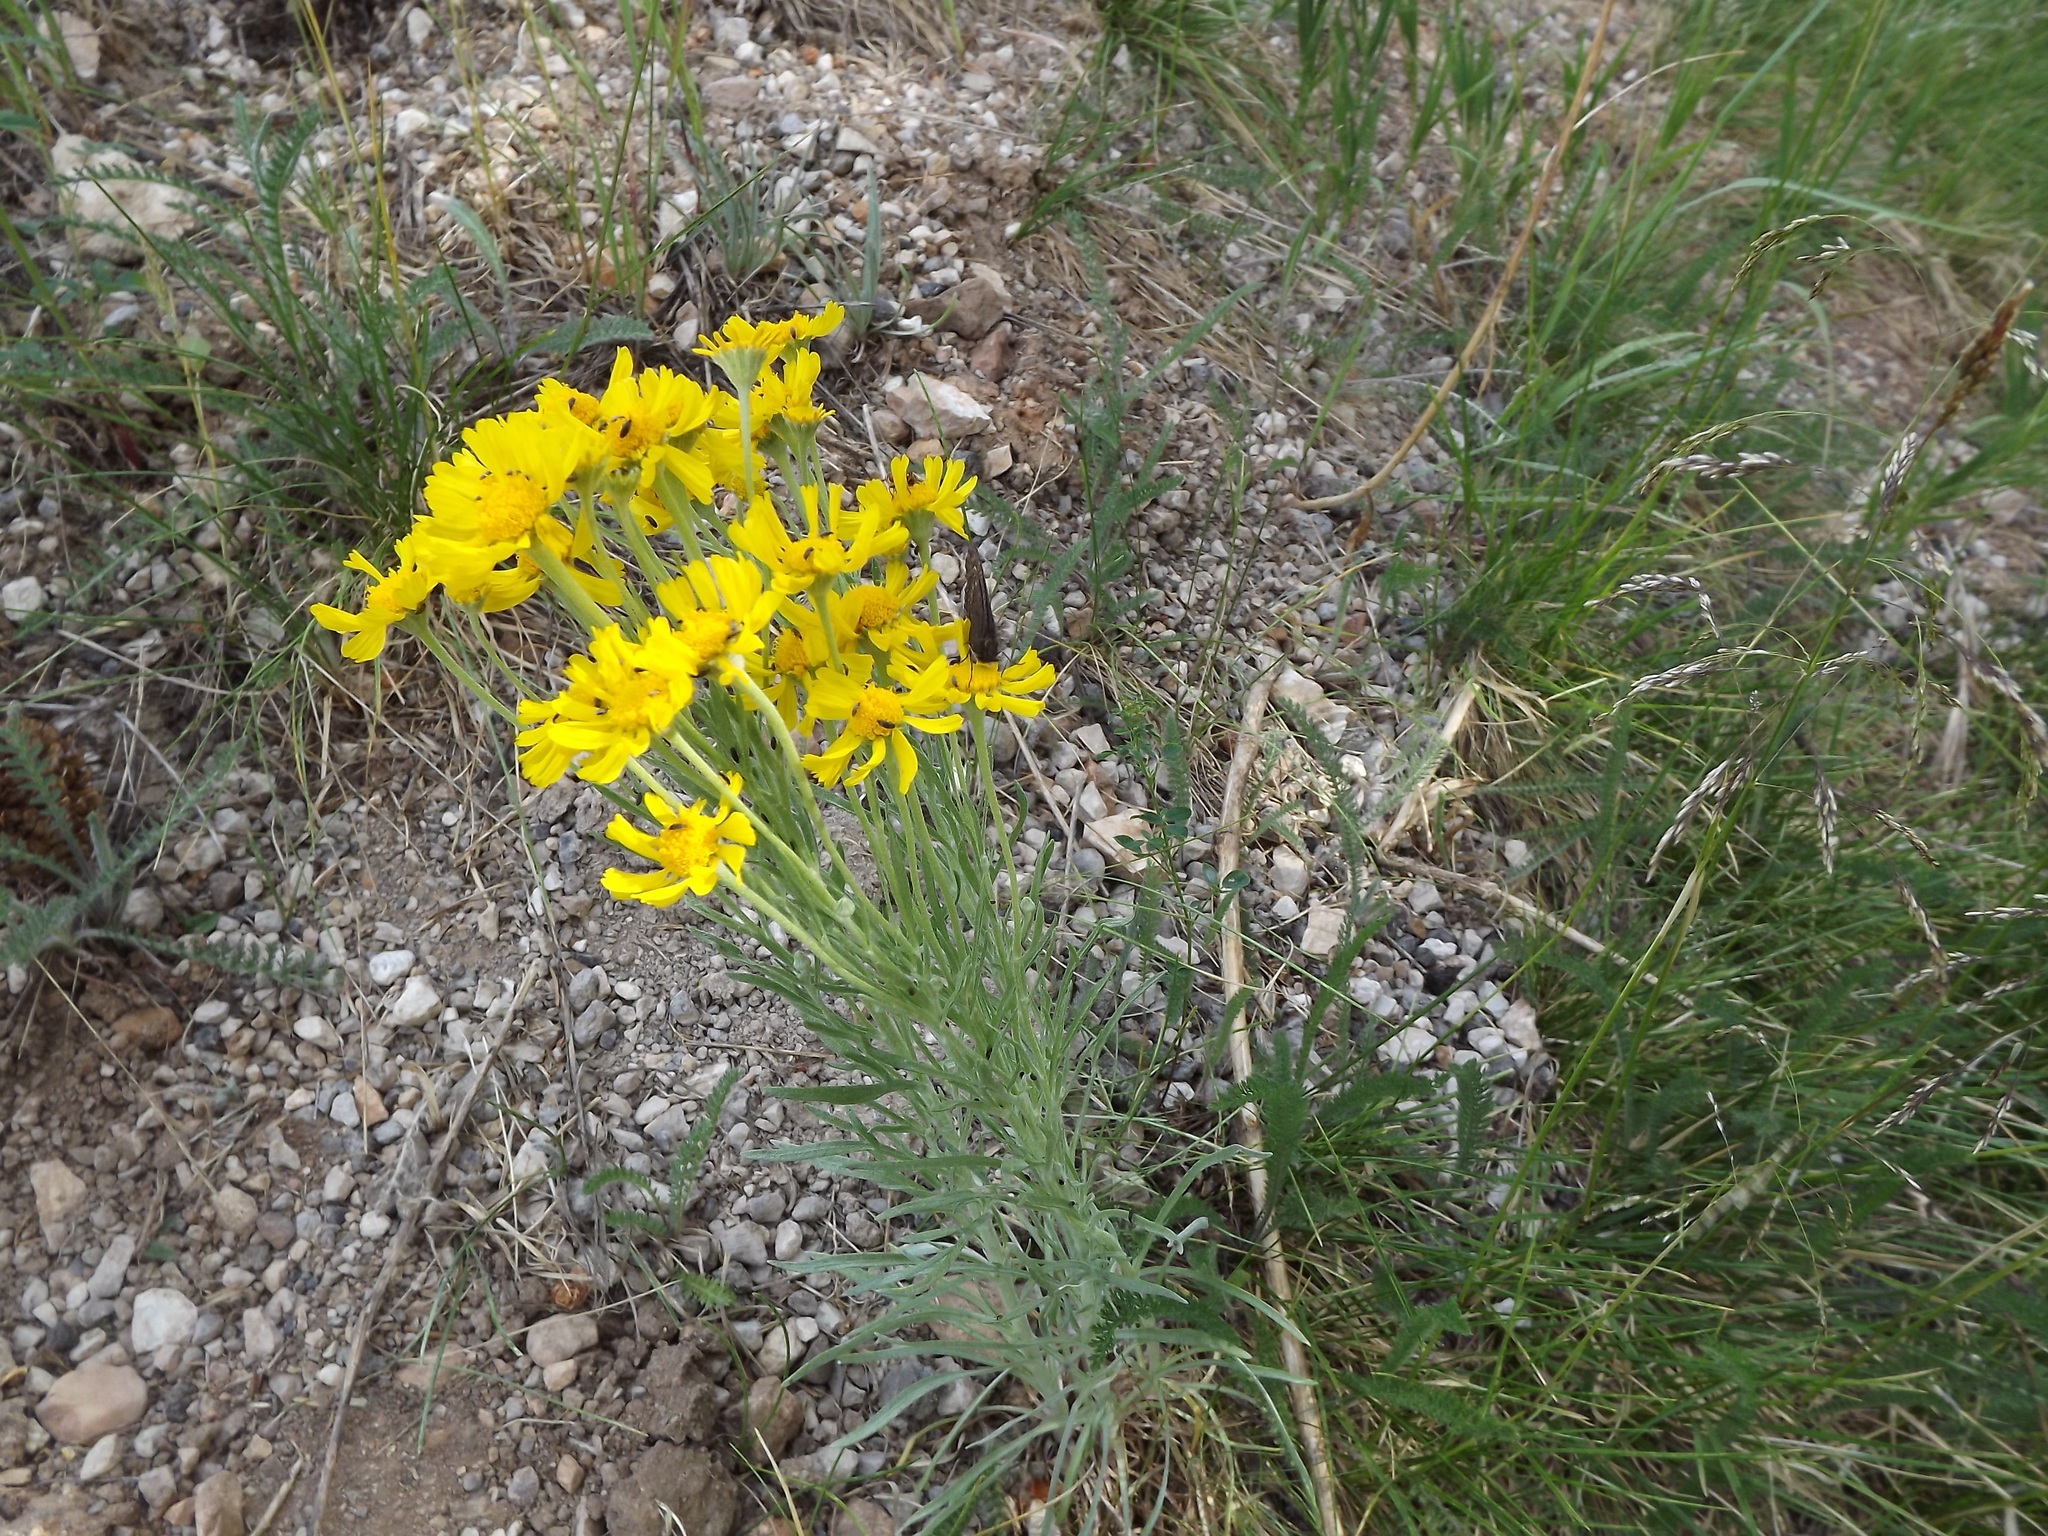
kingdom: Plantae
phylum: Tracheophyta
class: Magnoliopsida
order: Asterales
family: Asteraceae
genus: Hymenoxys
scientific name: Hymenoxys subintegra
